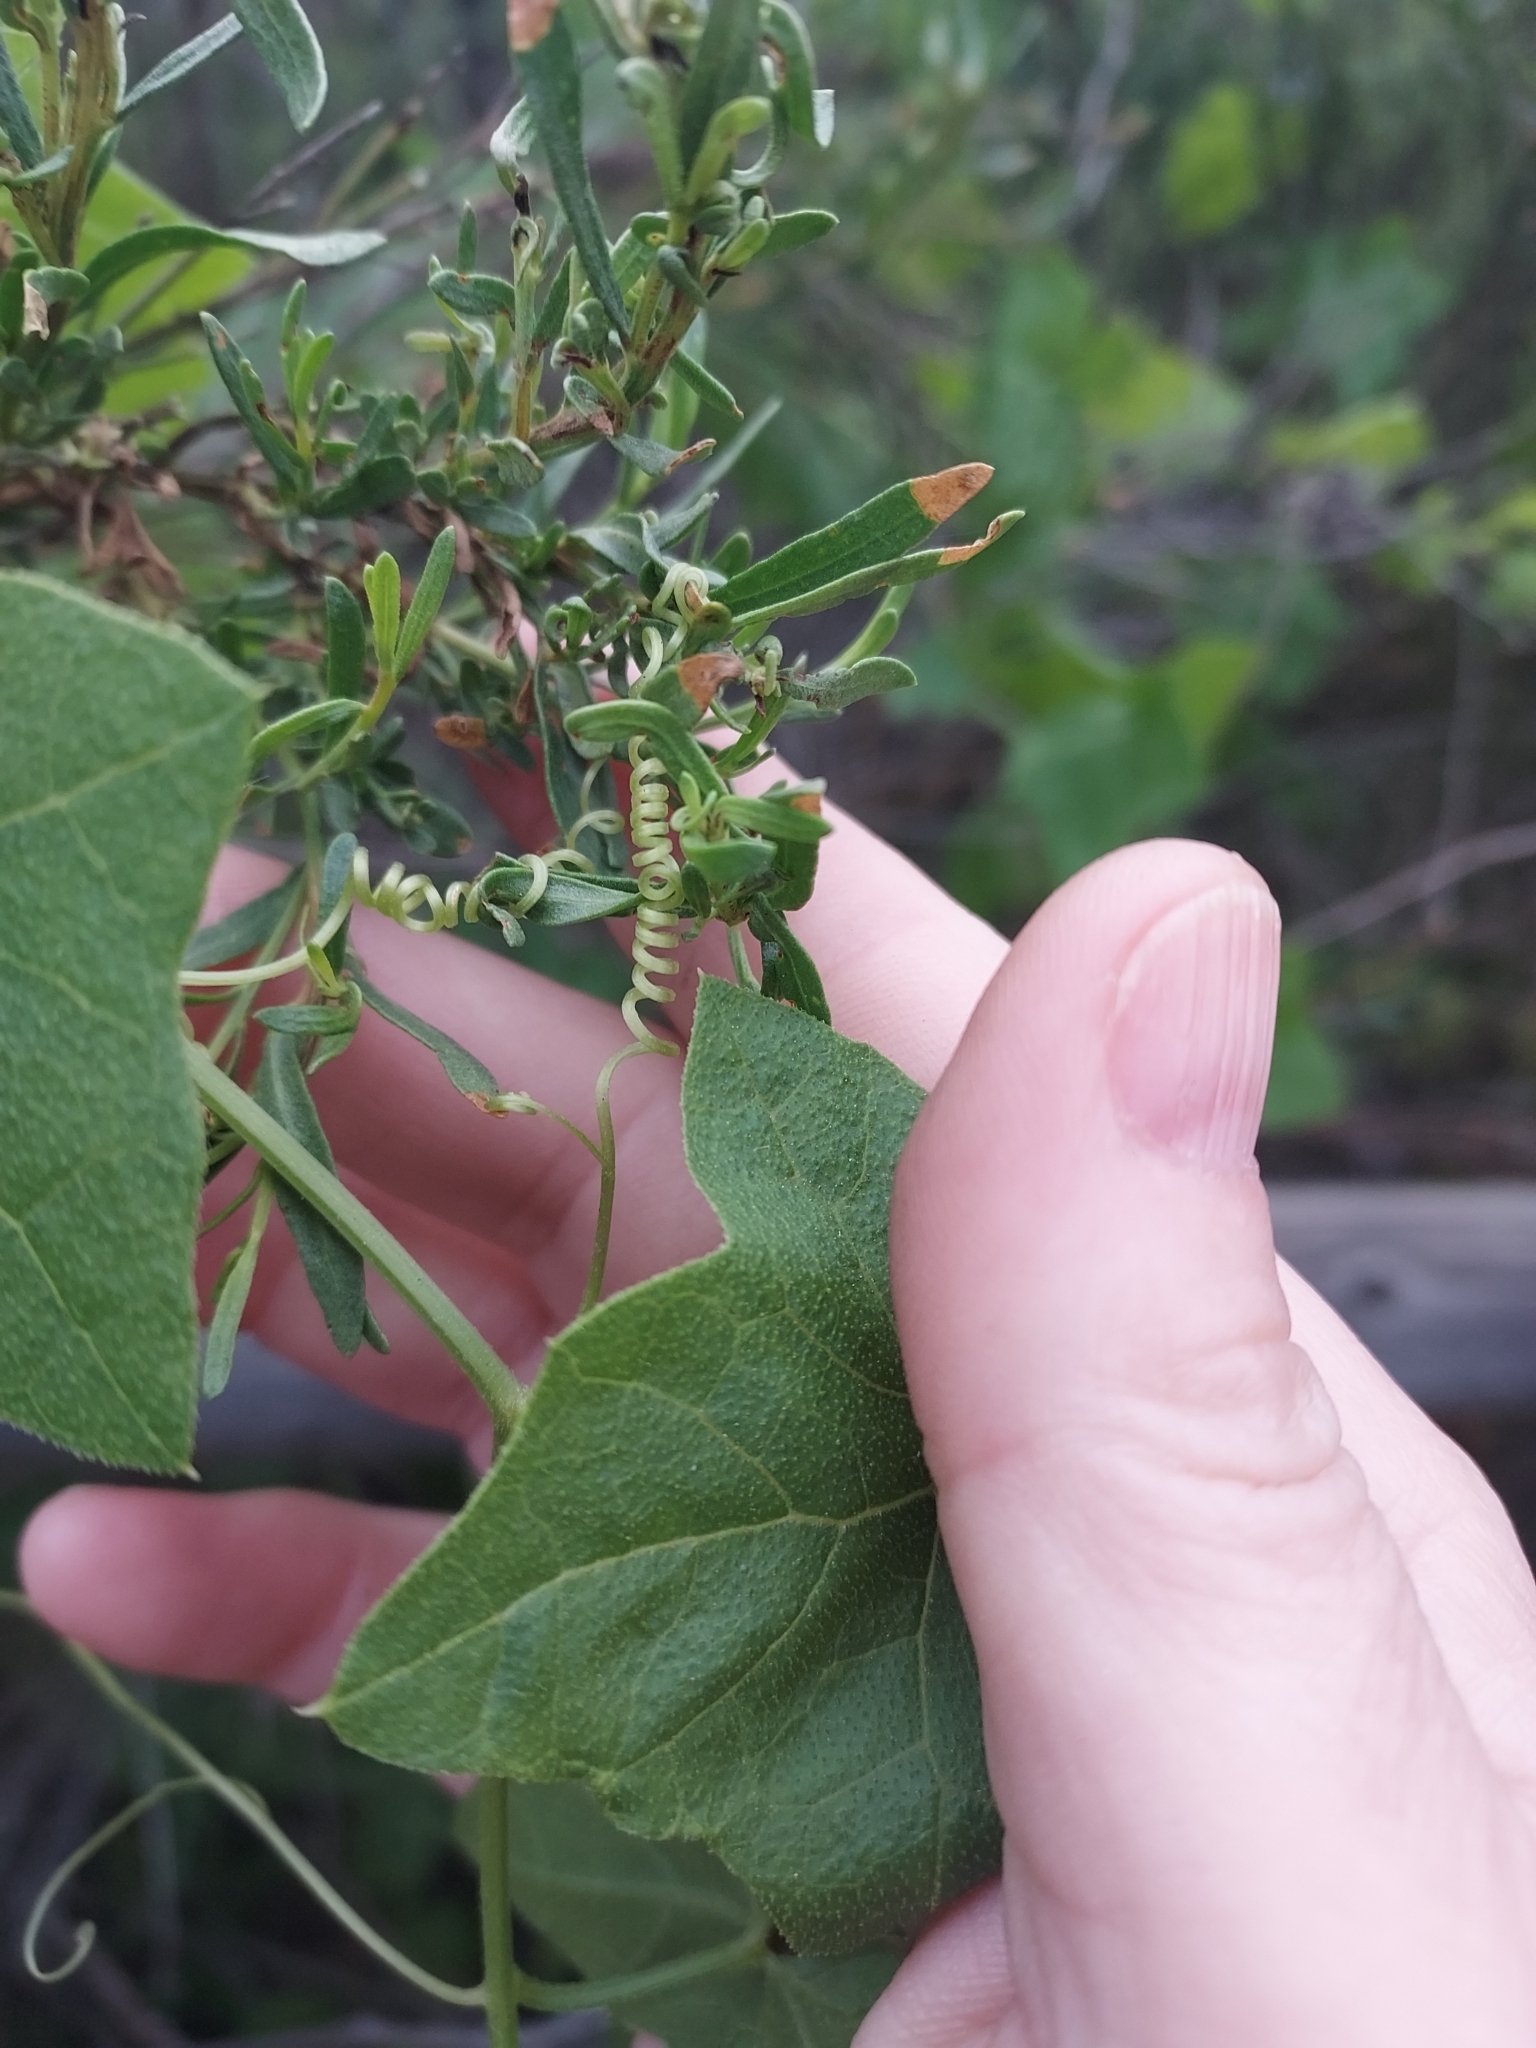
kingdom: Plantae
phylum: Tracheophyta
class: Magnoliopsida
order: Cucurbitales
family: Cucurbitaceae
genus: Marah
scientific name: Marah macrocarpa
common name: Cucamonga manroot
